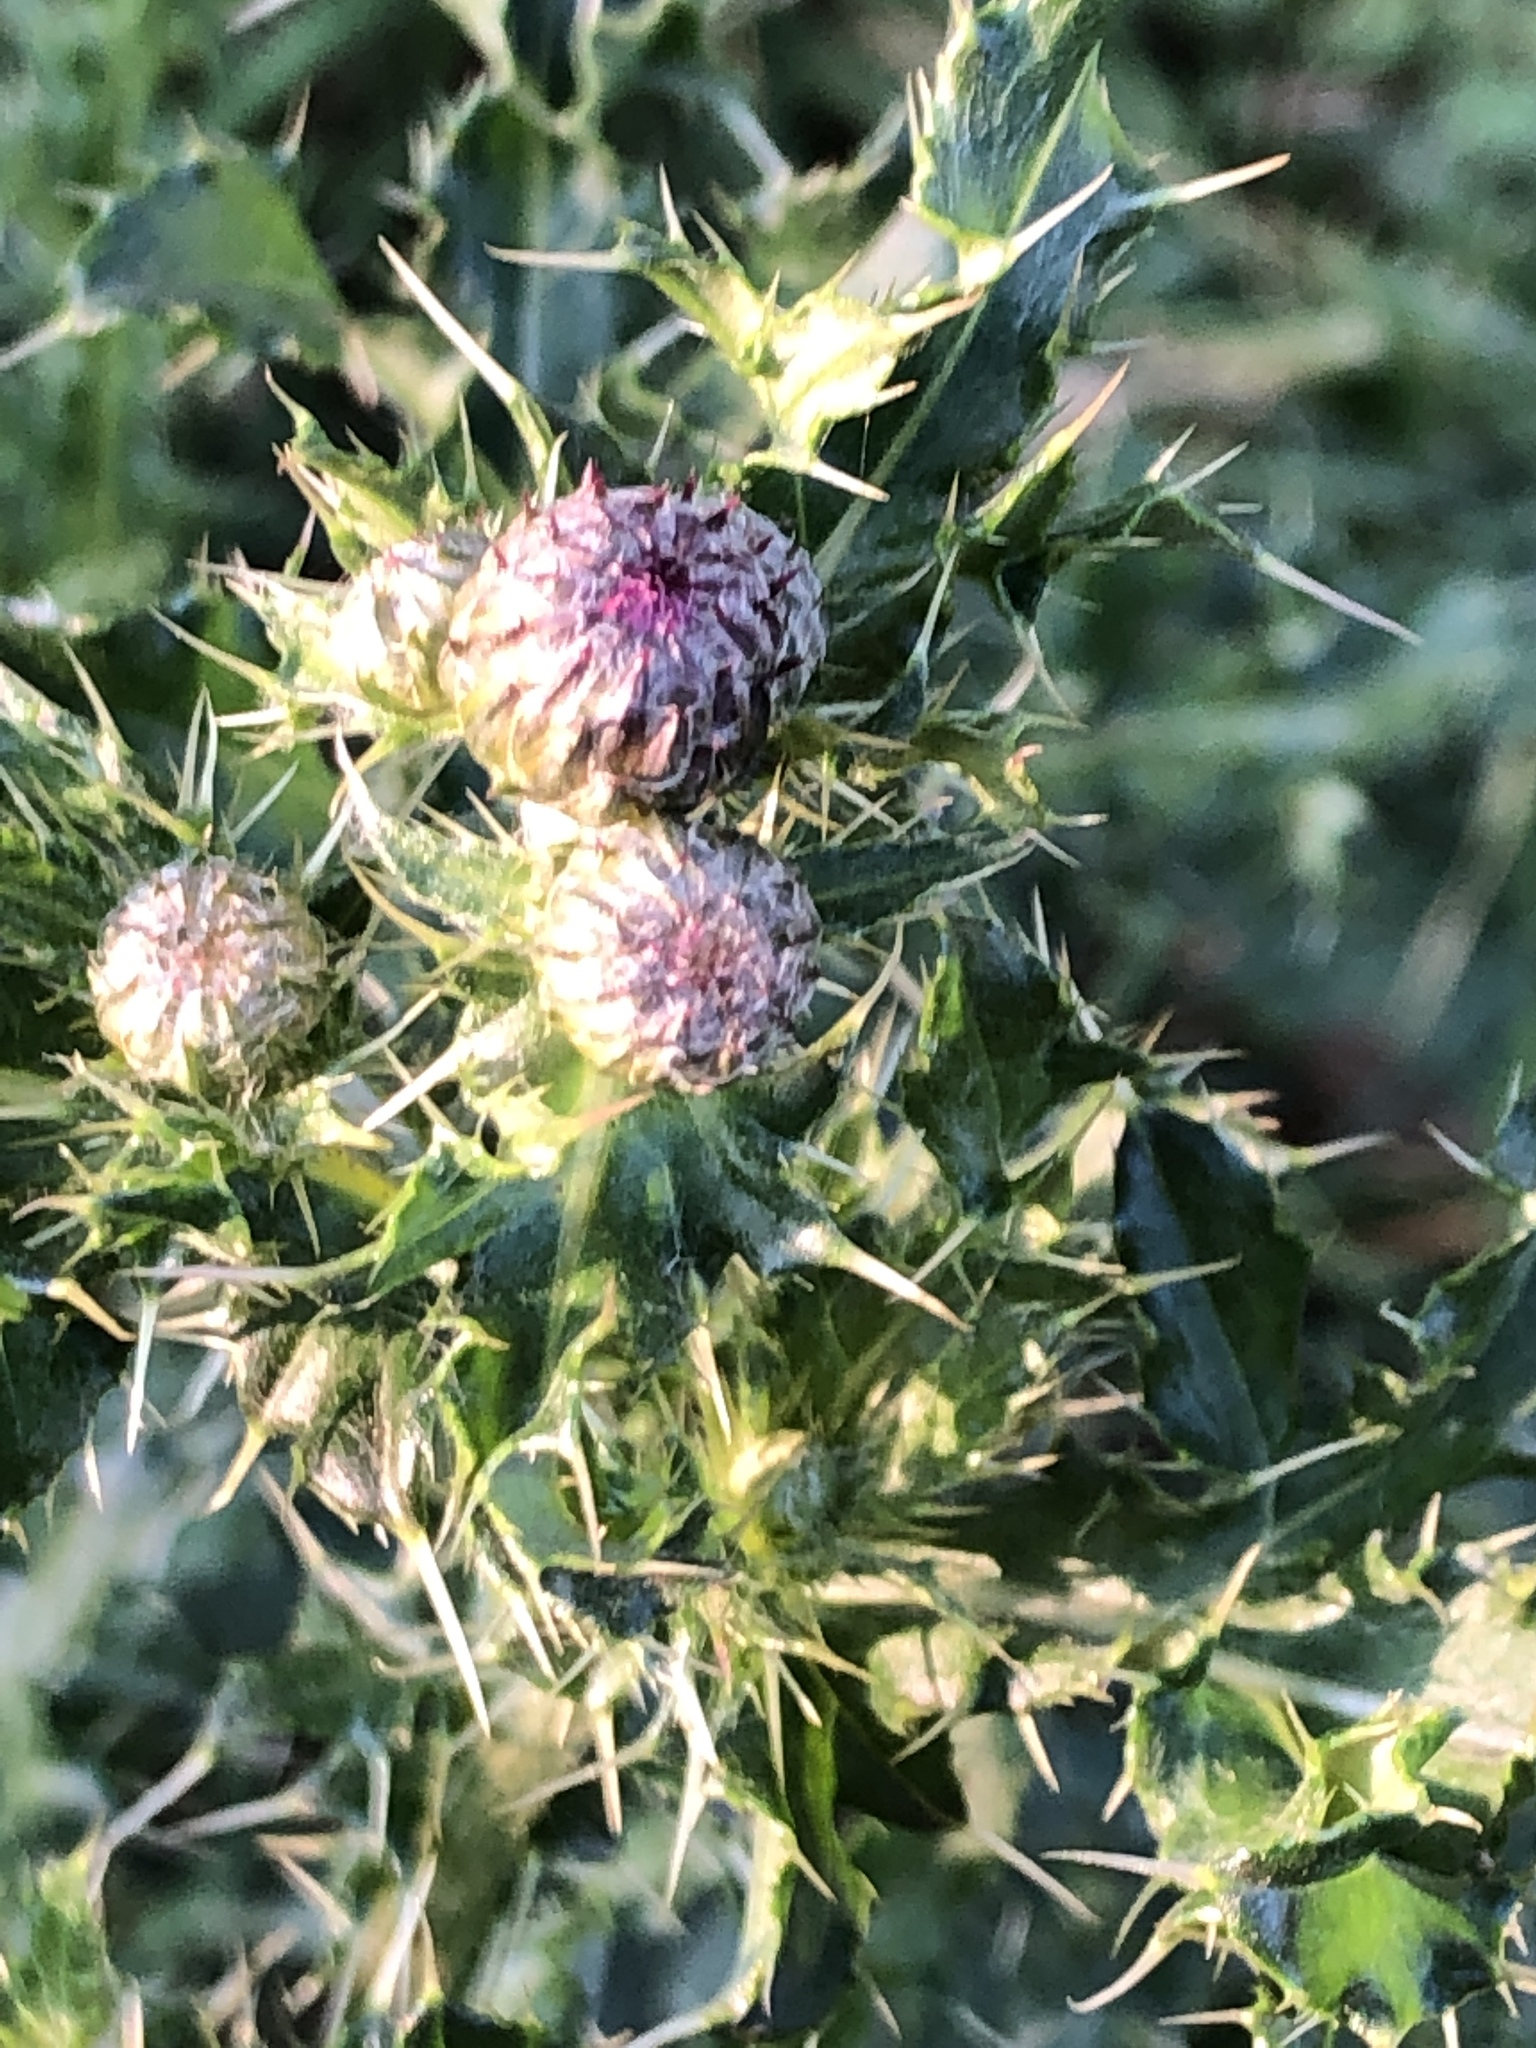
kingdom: Plantae
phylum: Tracheophyta
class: Magnoliopsida
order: Asterales
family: Asteraceae
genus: Cirsium
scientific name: Cirsium arvense
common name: Creeping thistle
